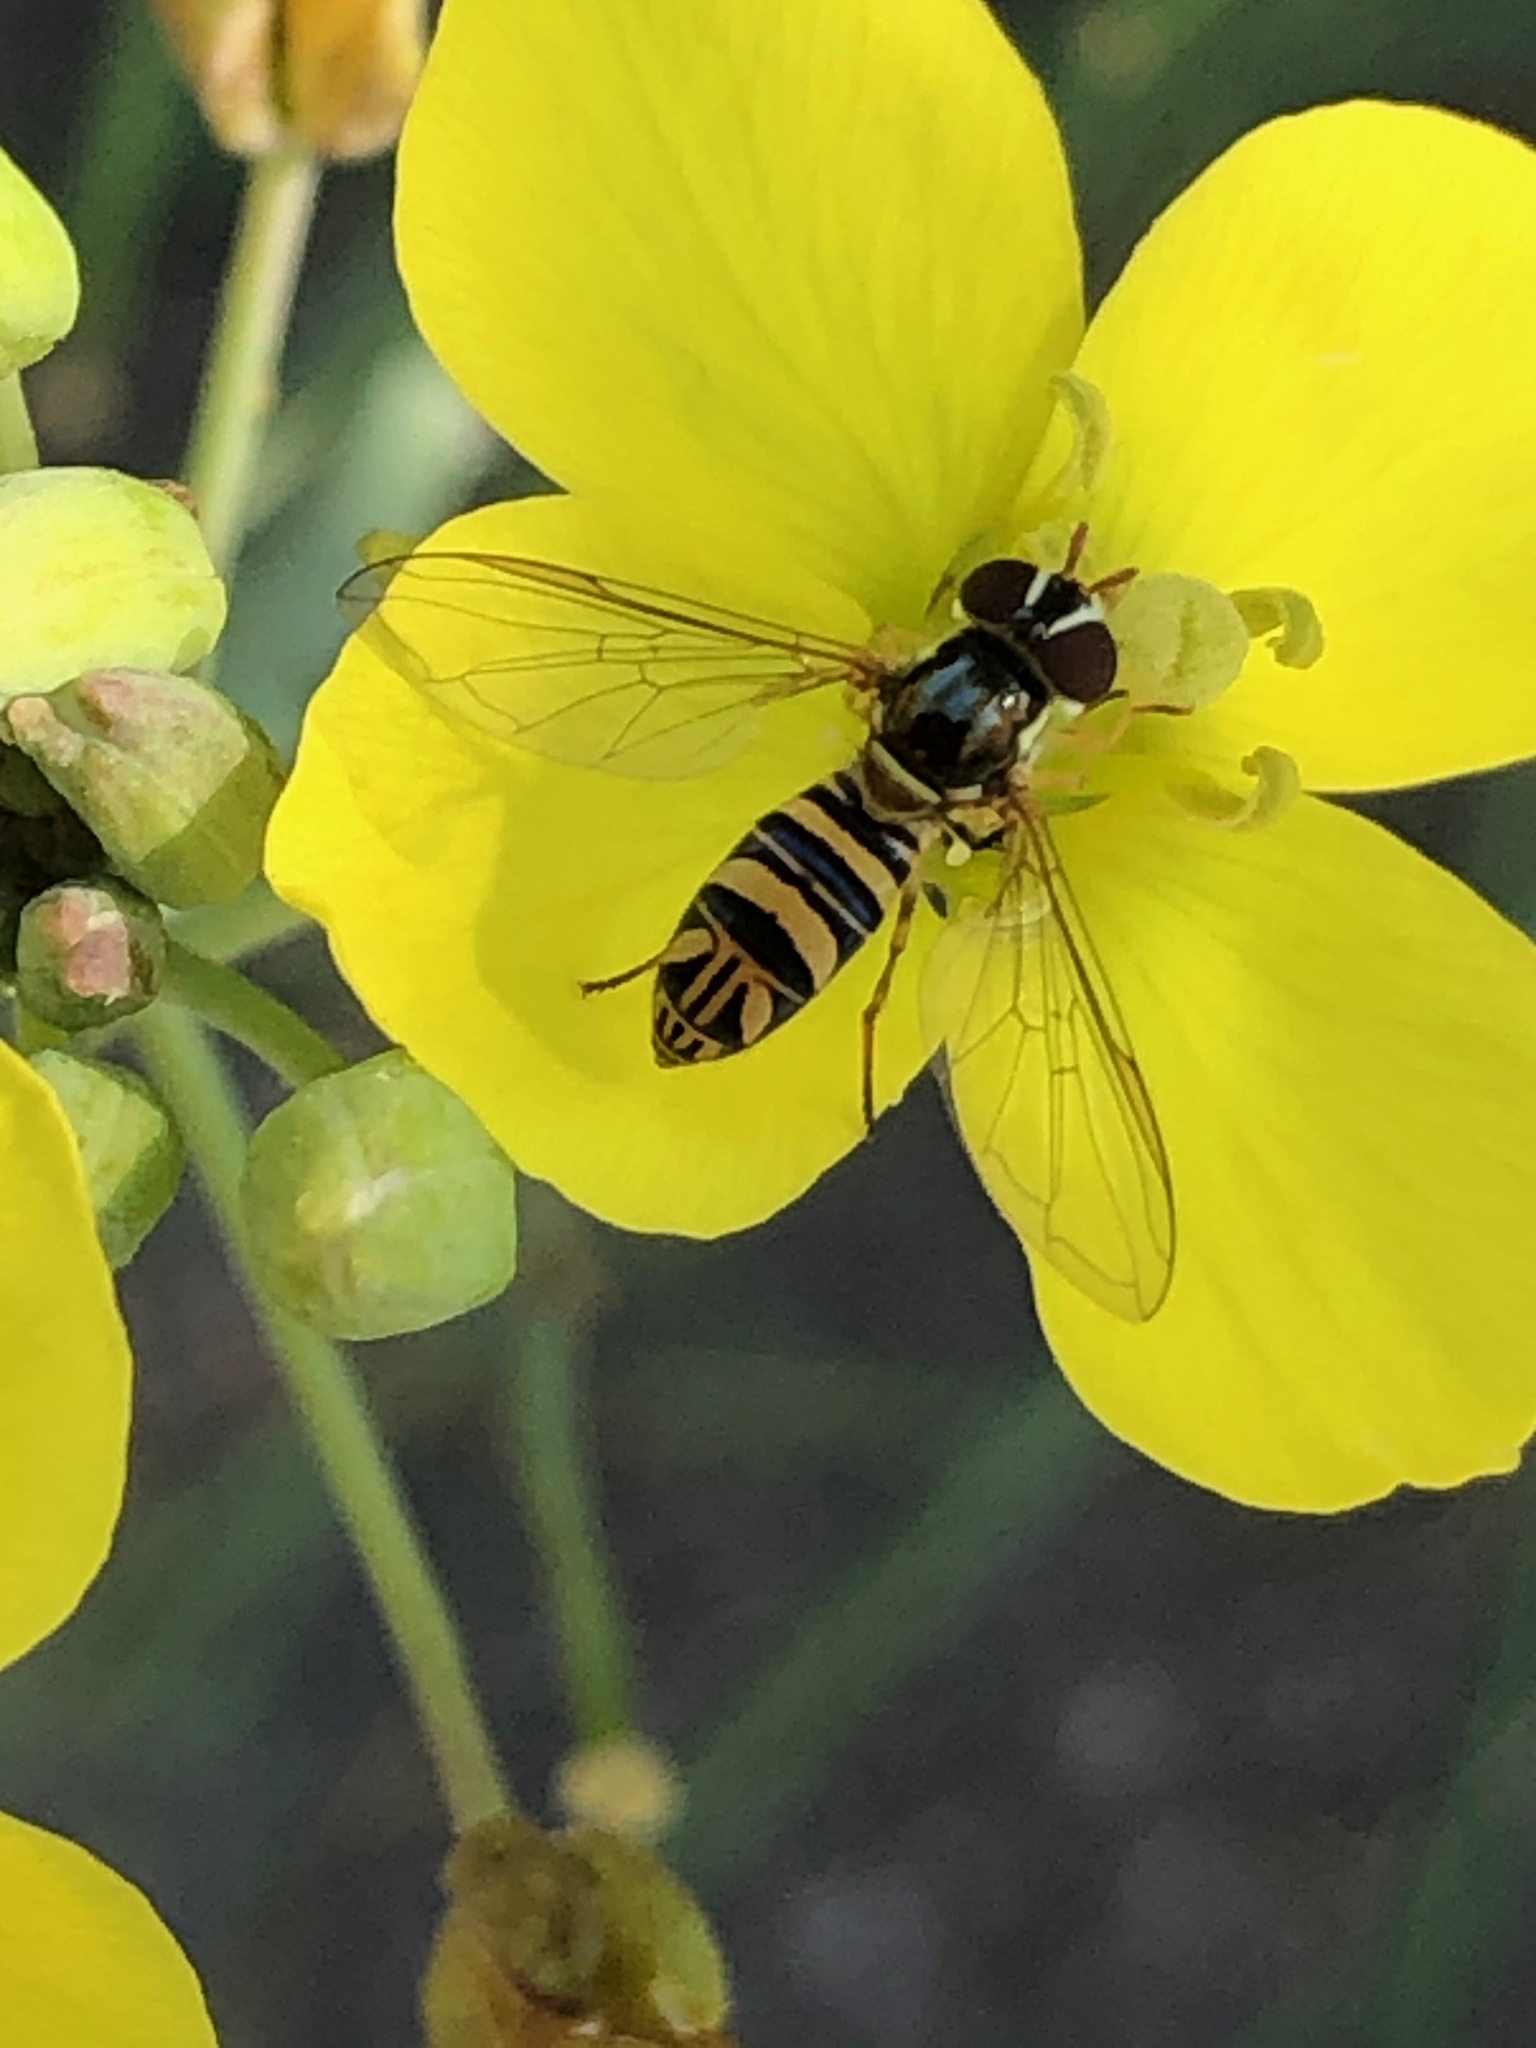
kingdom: Animalia
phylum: Arthropoda
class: Insecta
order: Diptera
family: Syrphidae
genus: Allograpta
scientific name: Allograpta obliqua
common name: Common oblique syrphid
